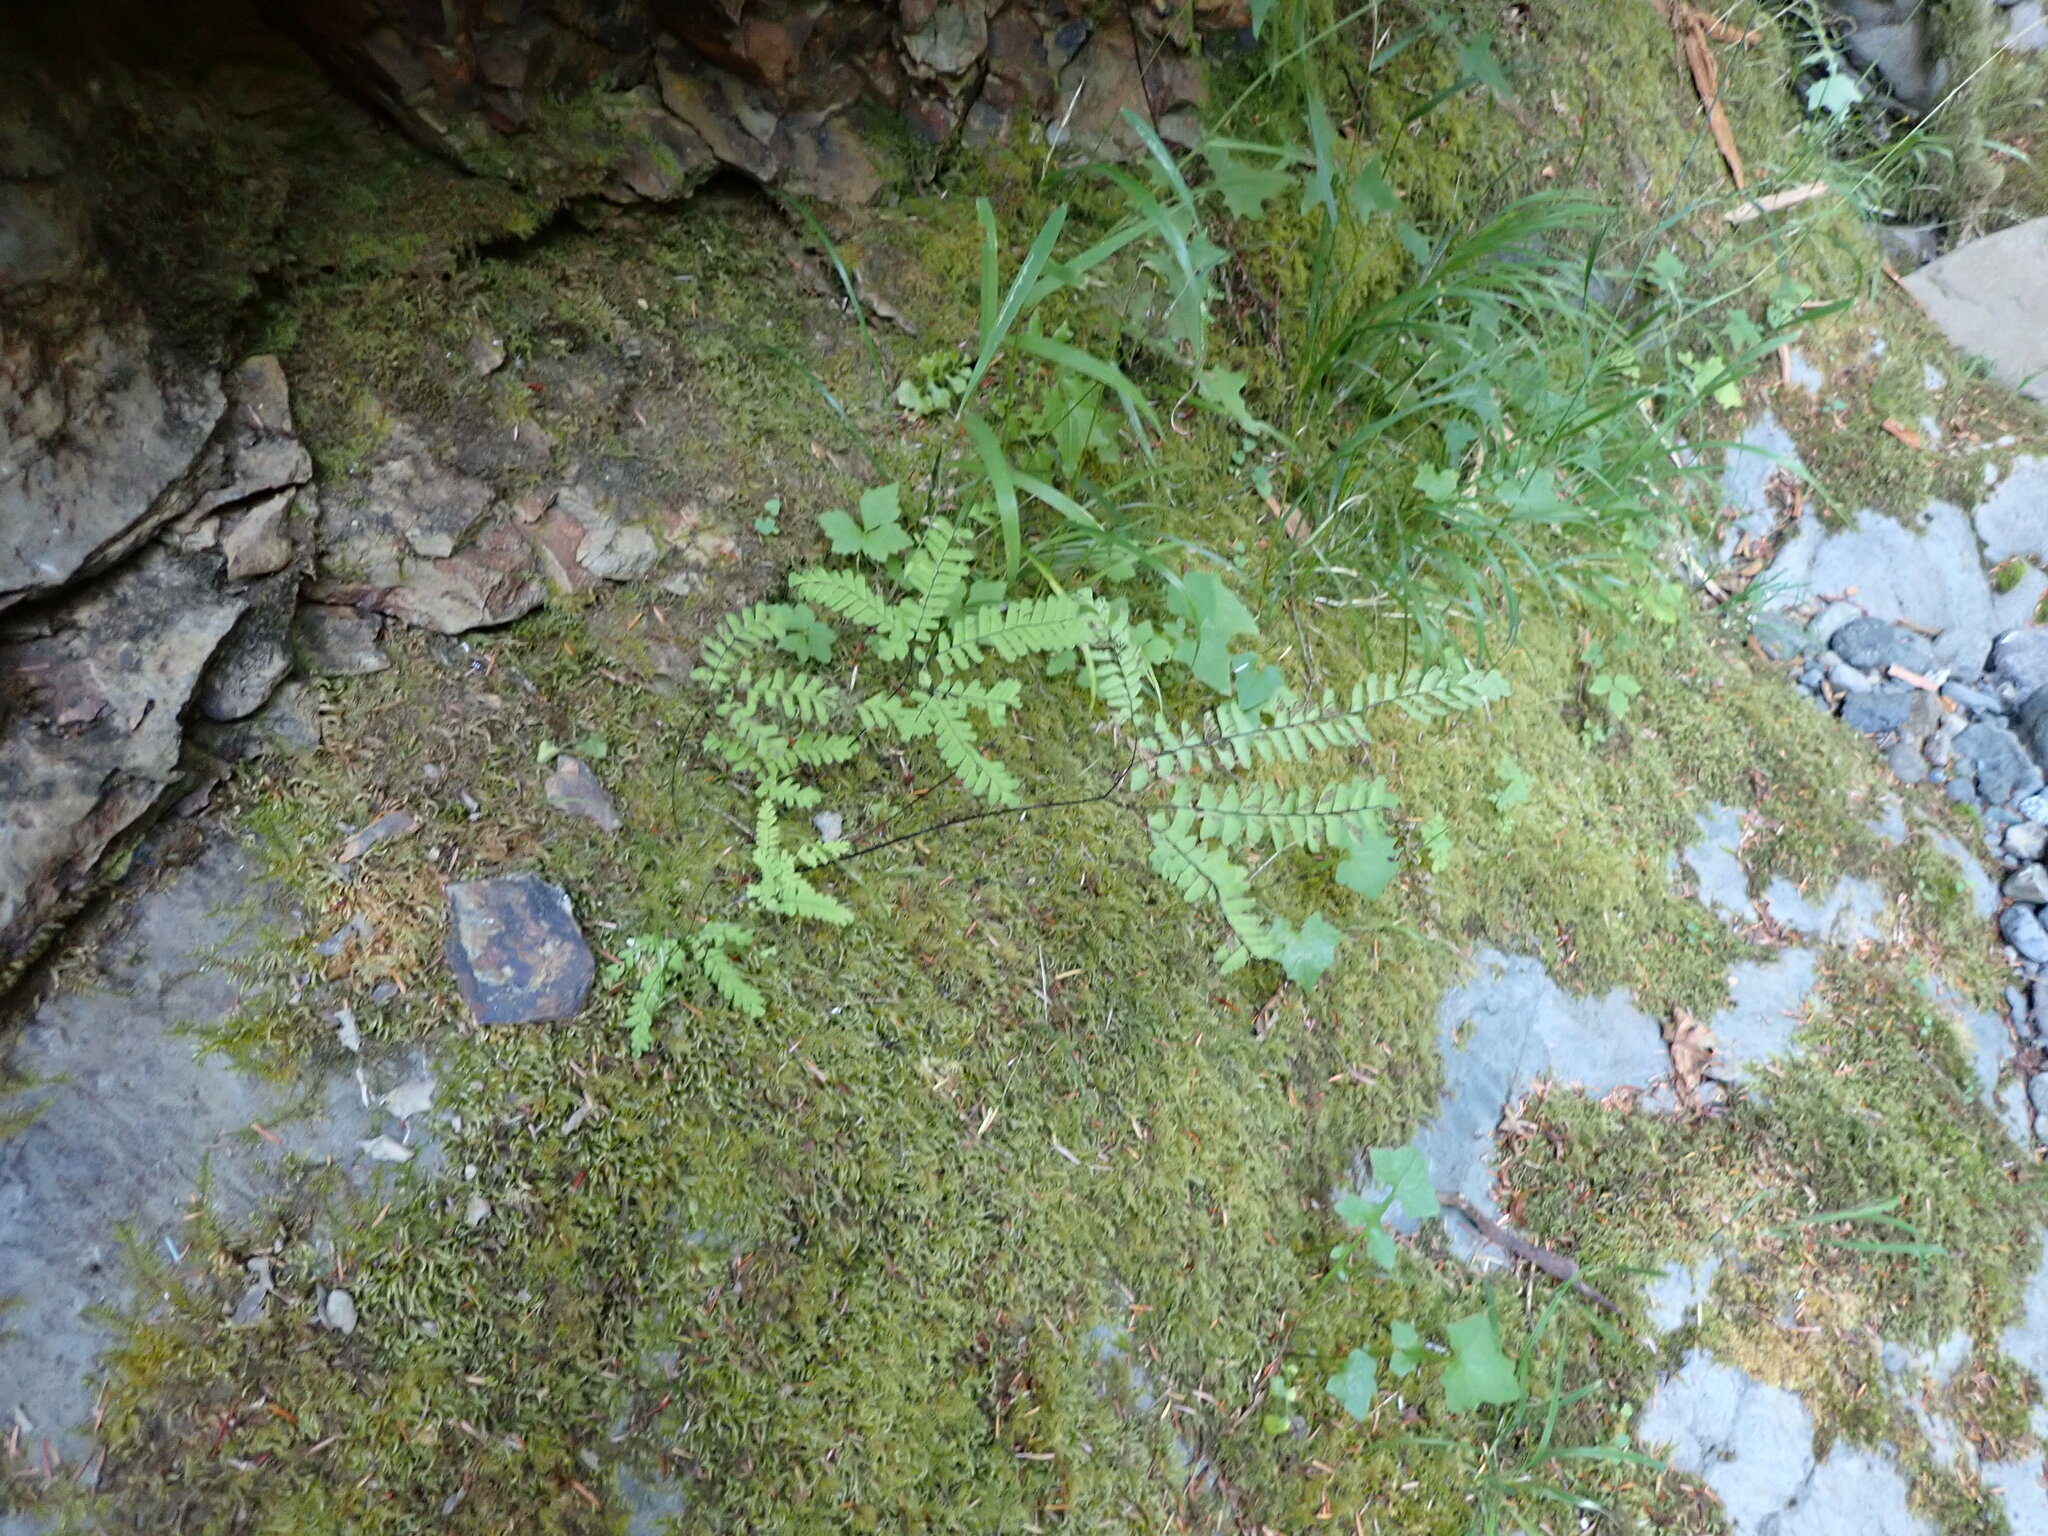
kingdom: Plantae
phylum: Tracheophyta
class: Polypodiopsida
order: Polypodiales
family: Pteridaceae
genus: Adiantum
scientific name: Adiantum aleuticum
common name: Aleutian maidenhair fern
